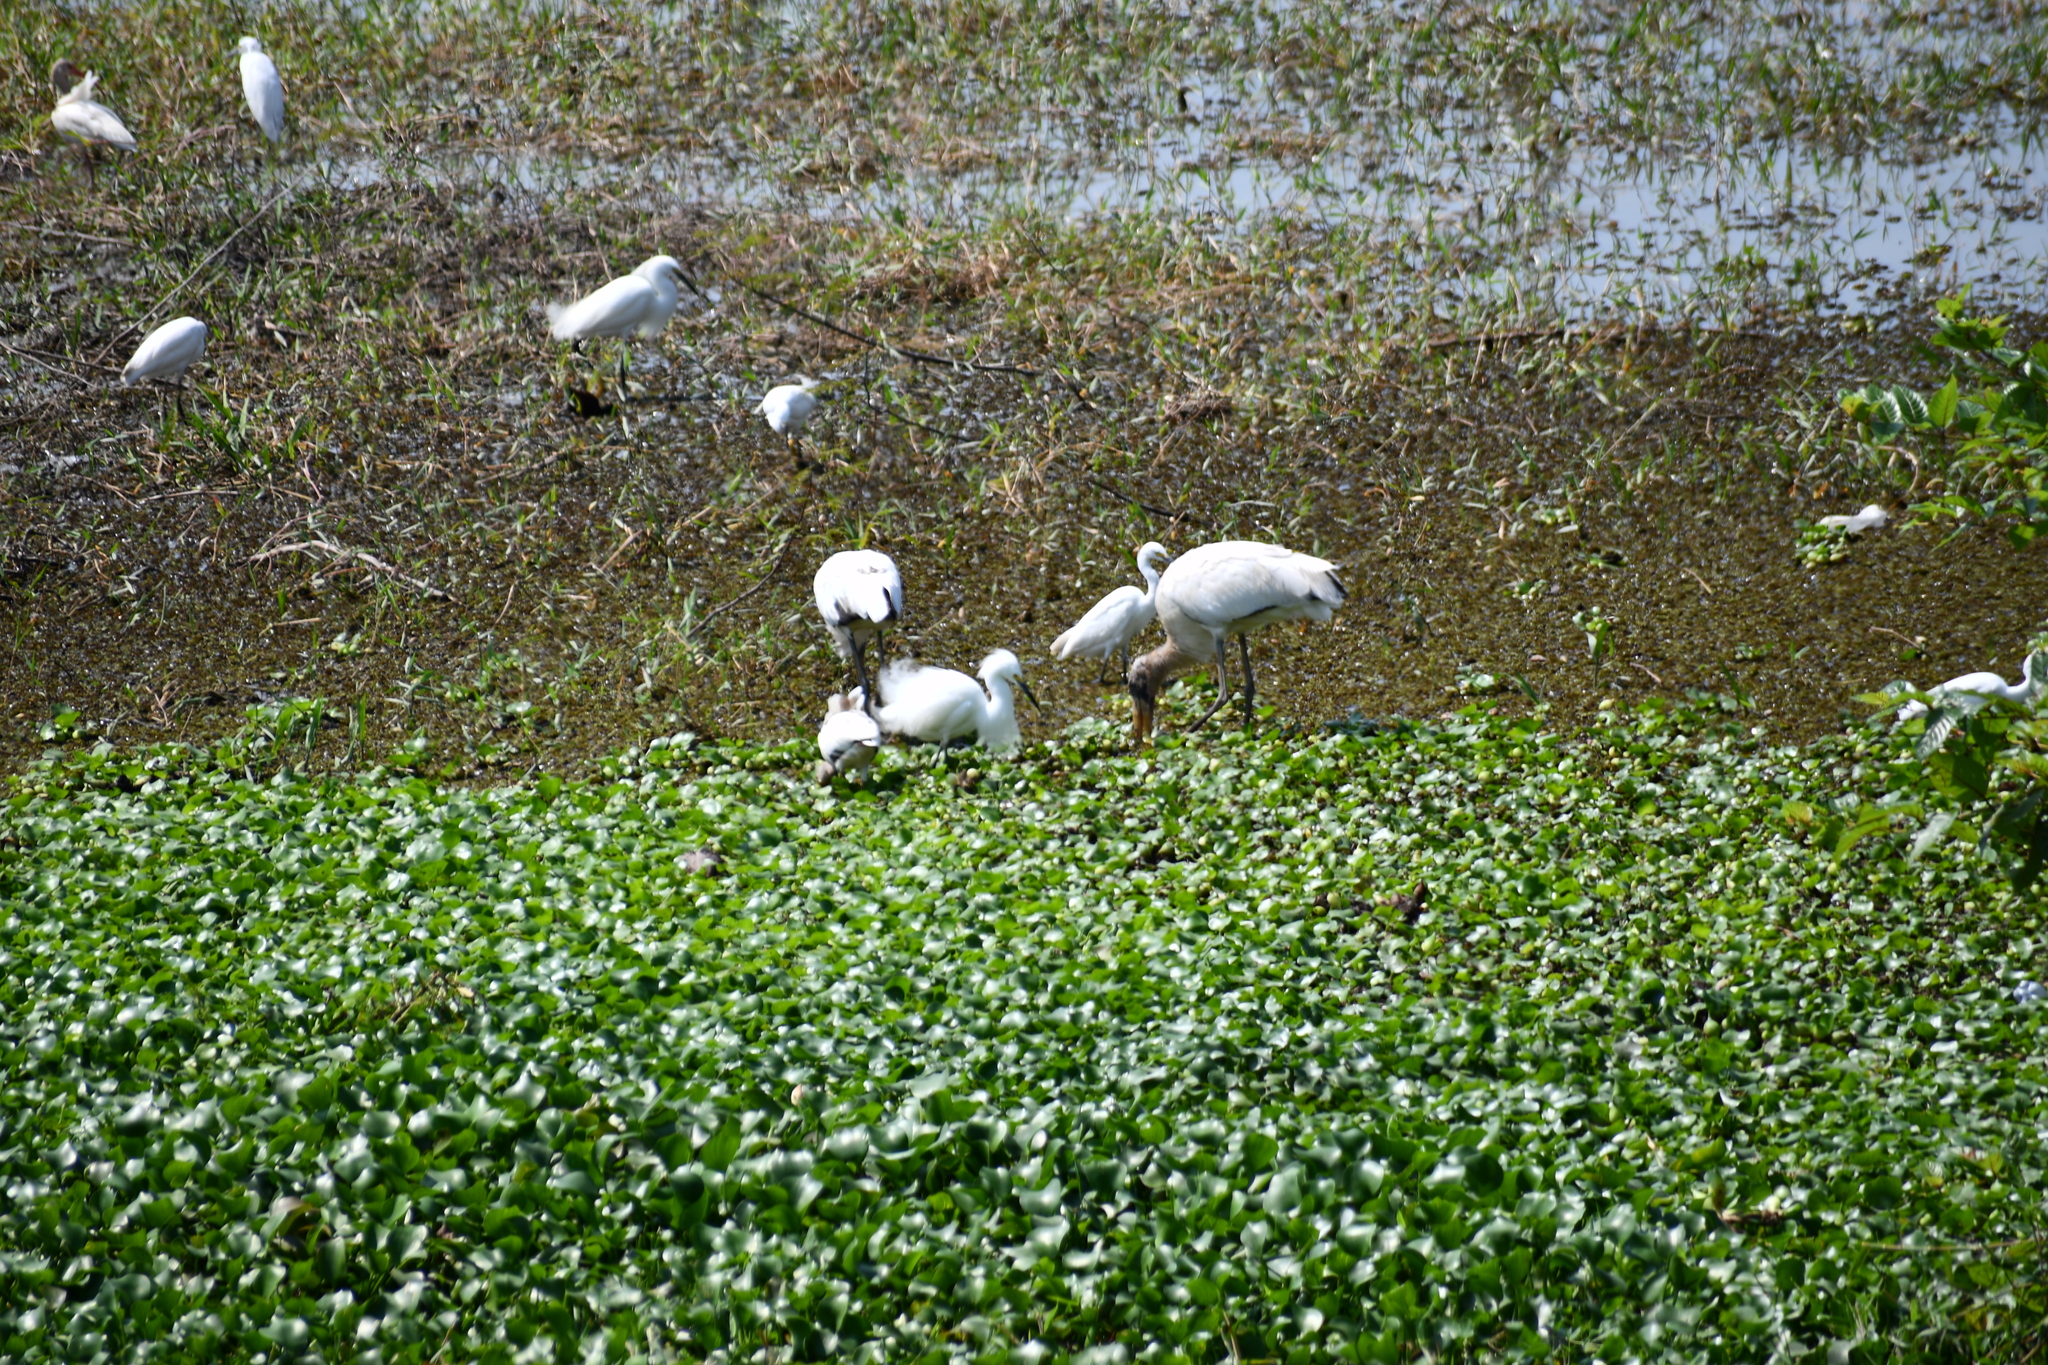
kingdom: Animalia
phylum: Chordata
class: Aves
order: Ciconiiformes
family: Ciconiidae
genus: Mycteria
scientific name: Mycteria americana
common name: Wood stork
